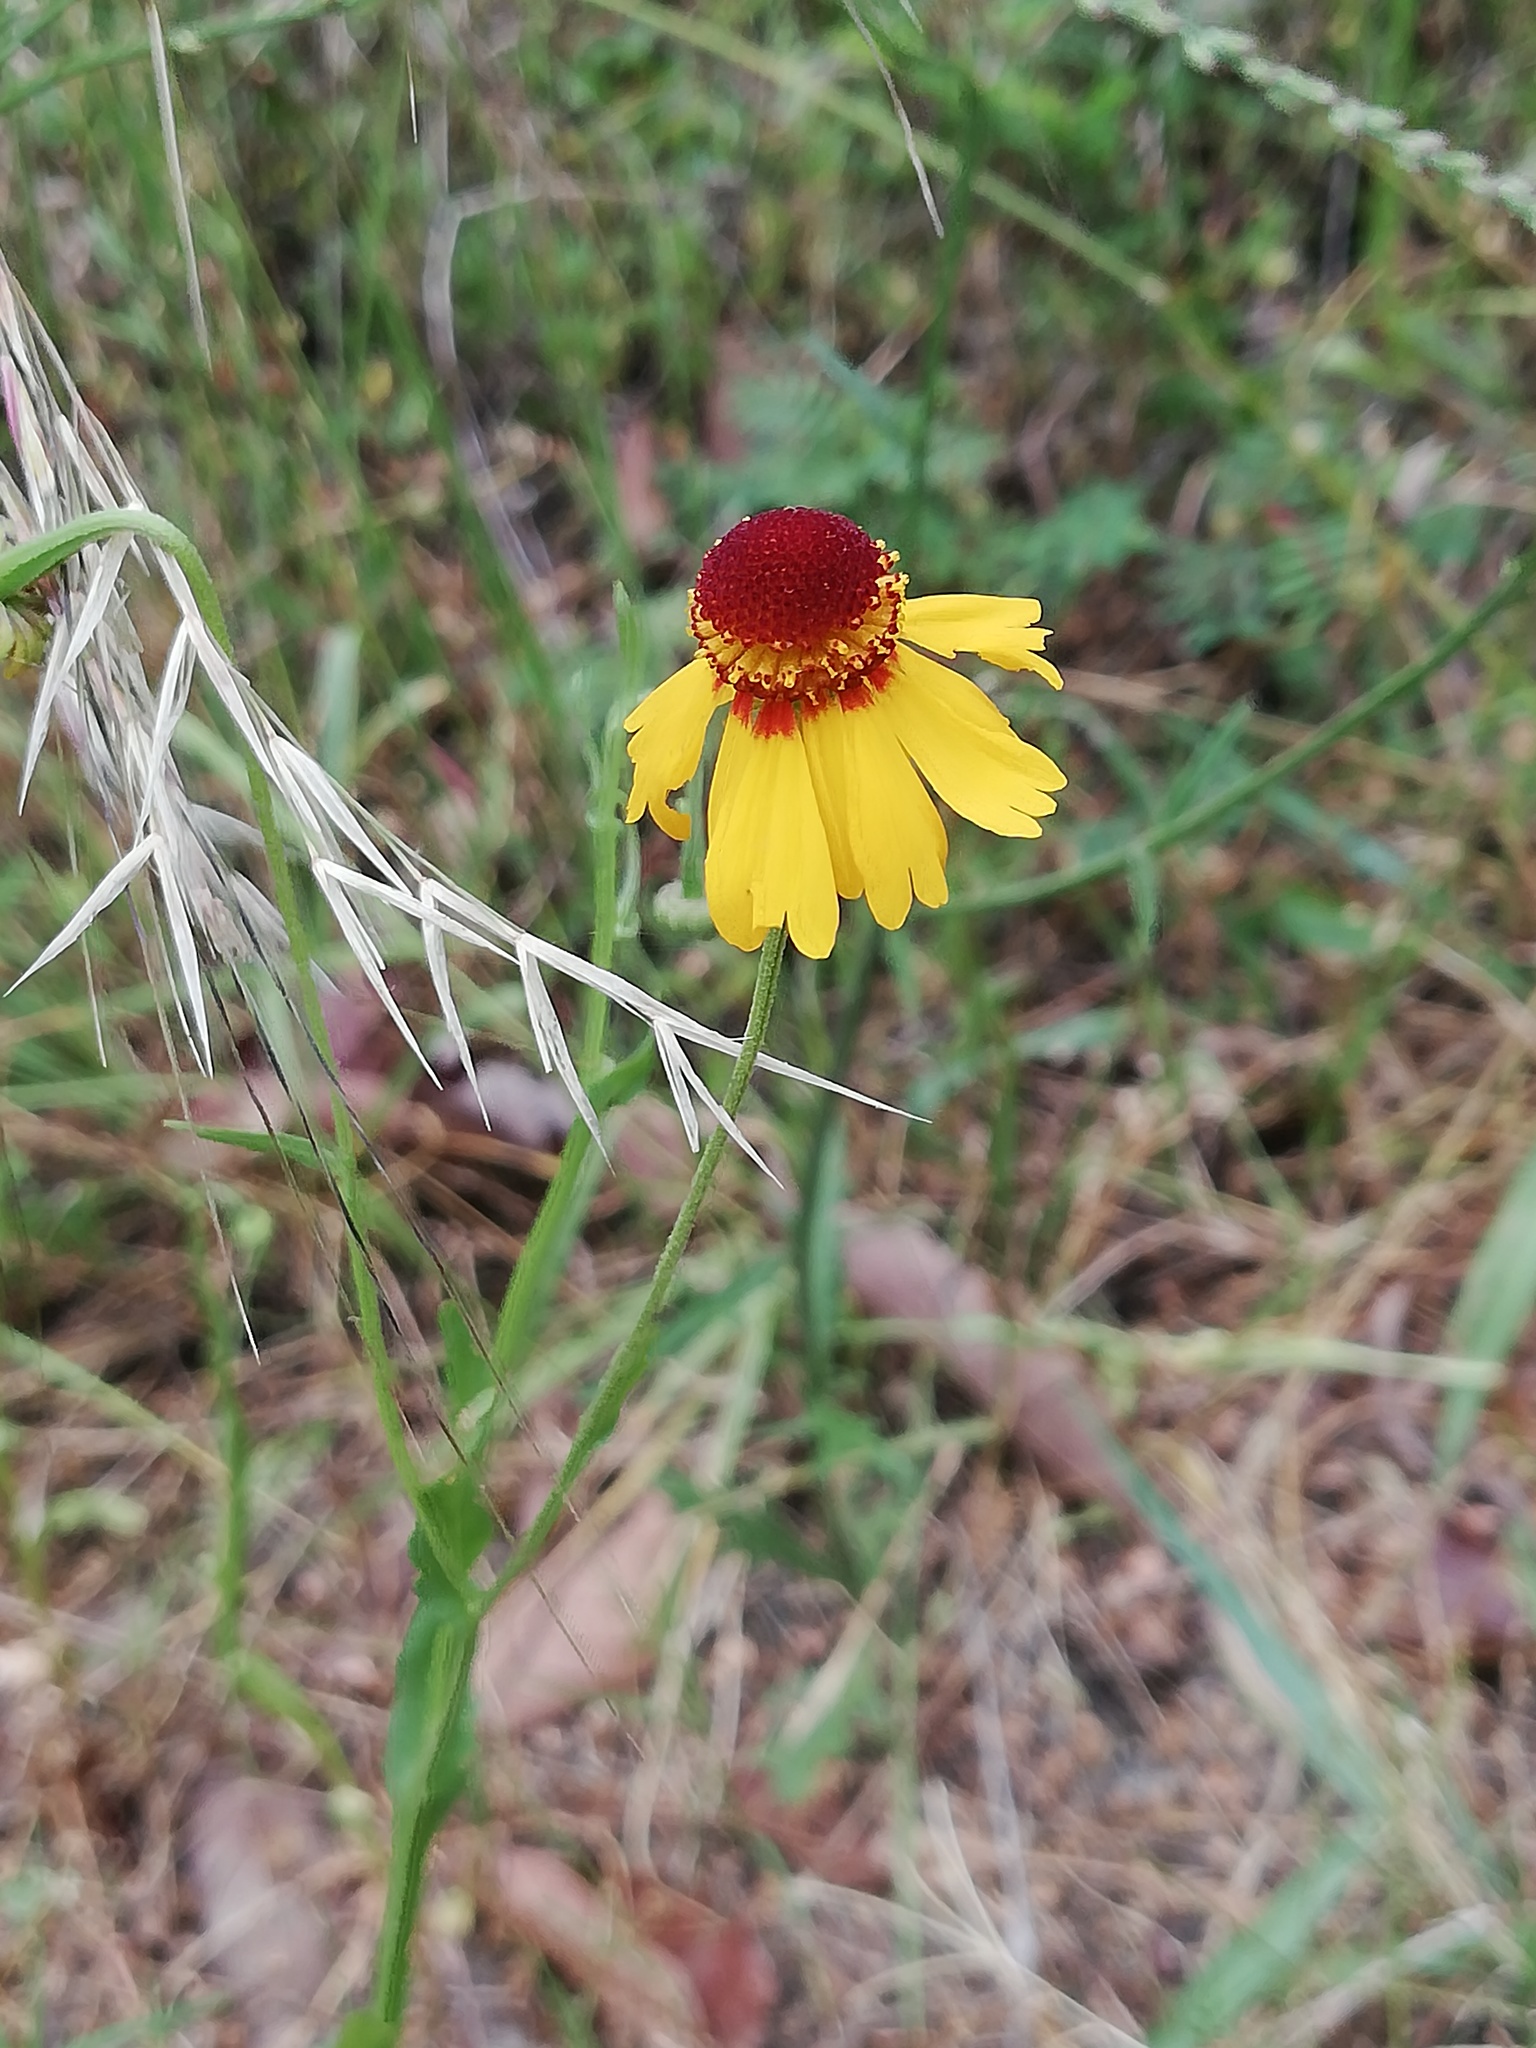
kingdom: Plantae
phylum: Tracheophyta
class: Magnoliopsida
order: Asterales
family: Asteraceae
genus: Helenium
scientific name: Helenium amphibolum
